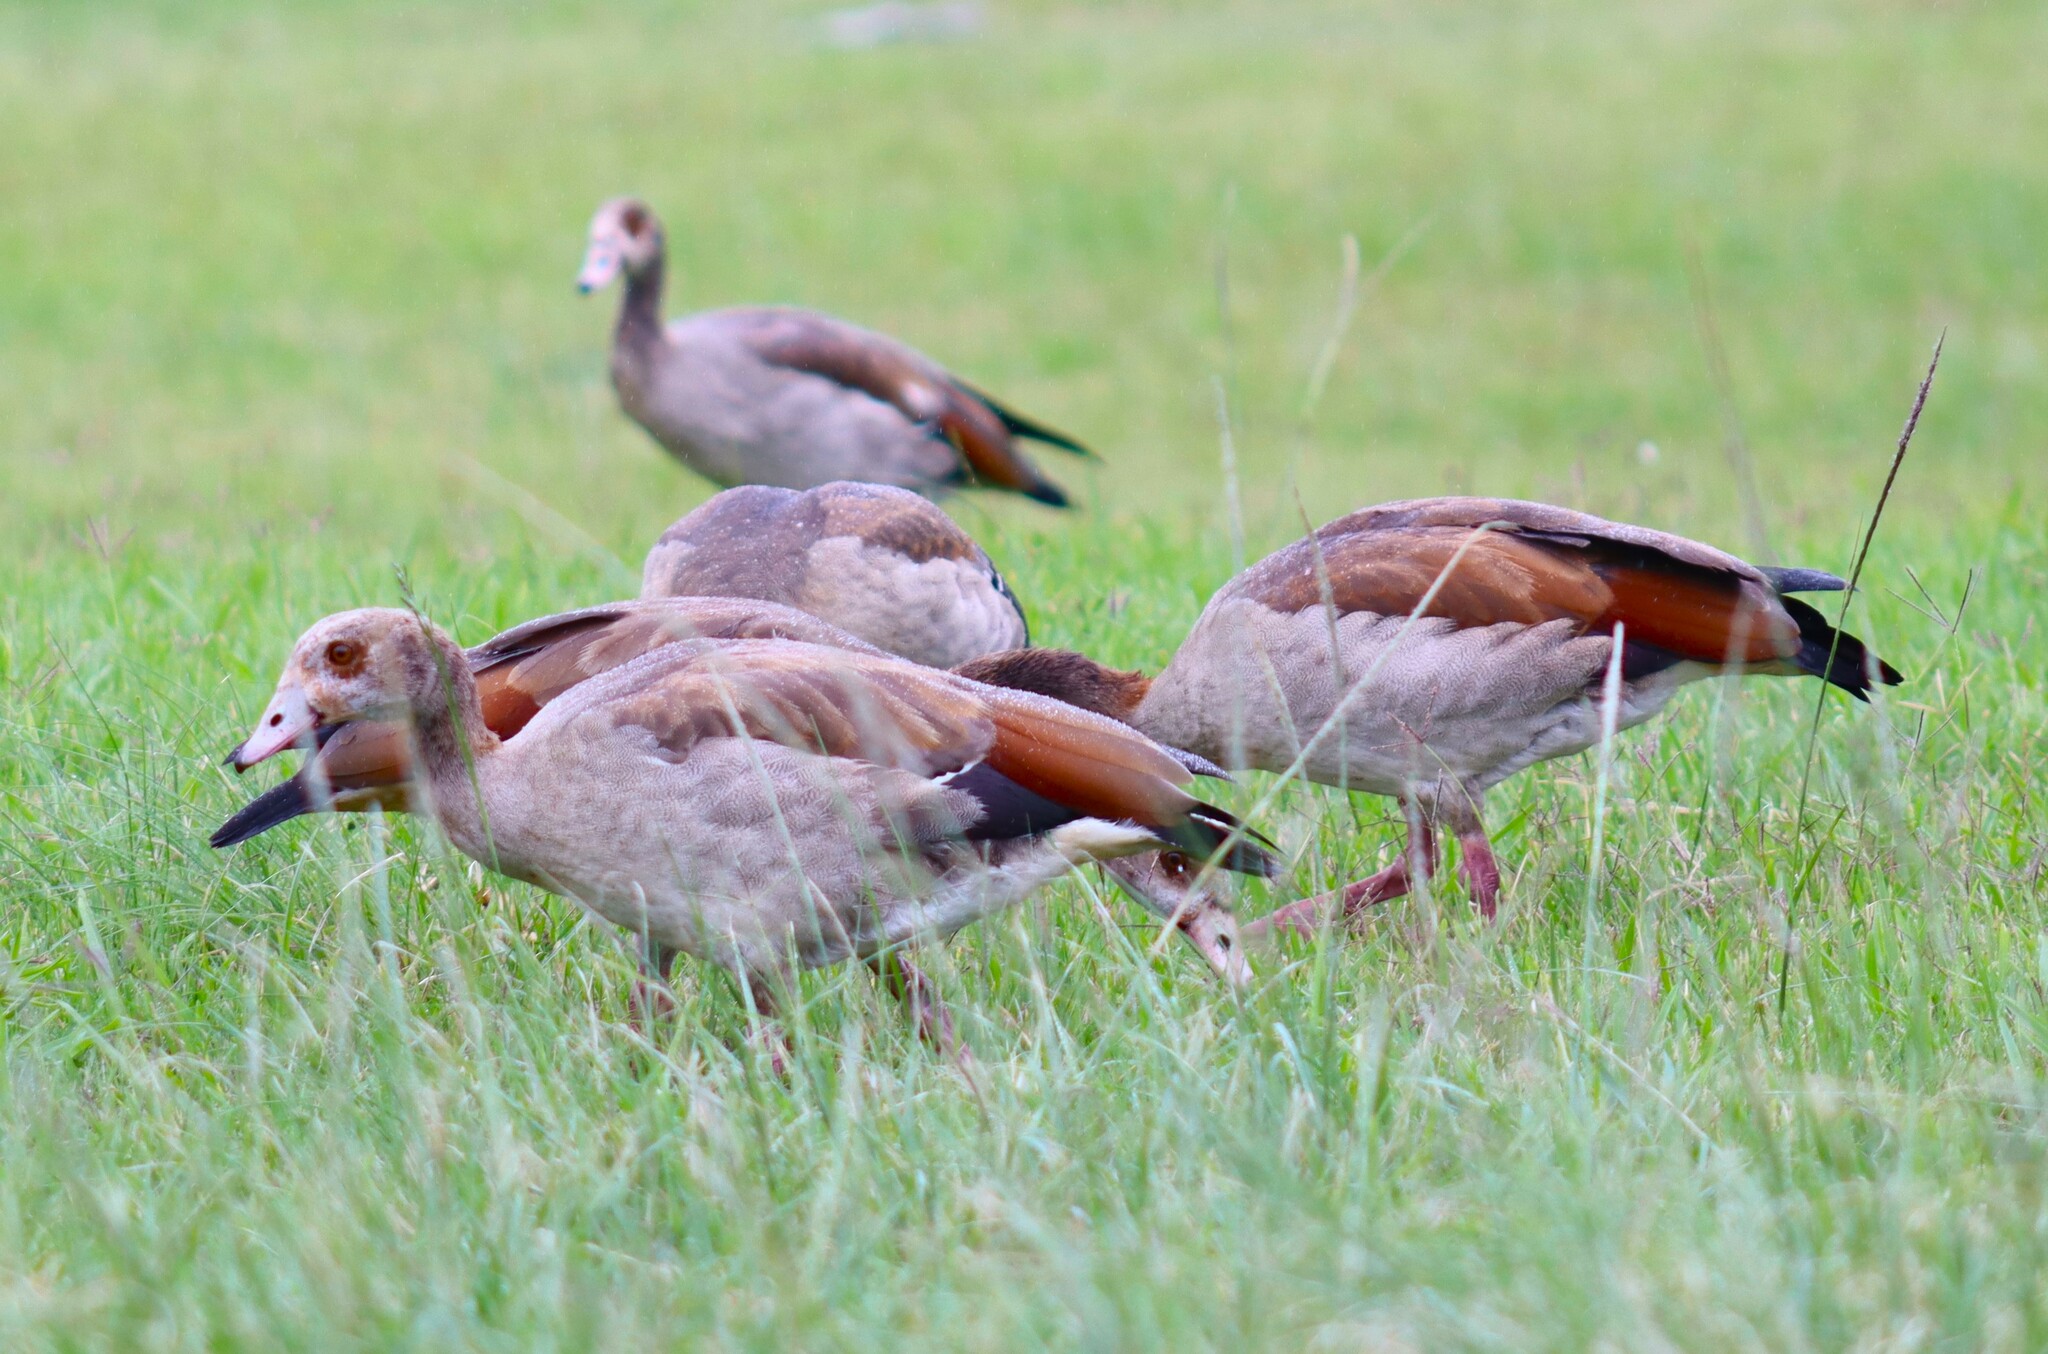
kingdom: Animalia
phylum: Chordata
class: Aves
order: Anseriformes
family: Anatidae
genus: Alopochen
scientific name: Alopochen aegyptiaca
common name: Egyptian goose
